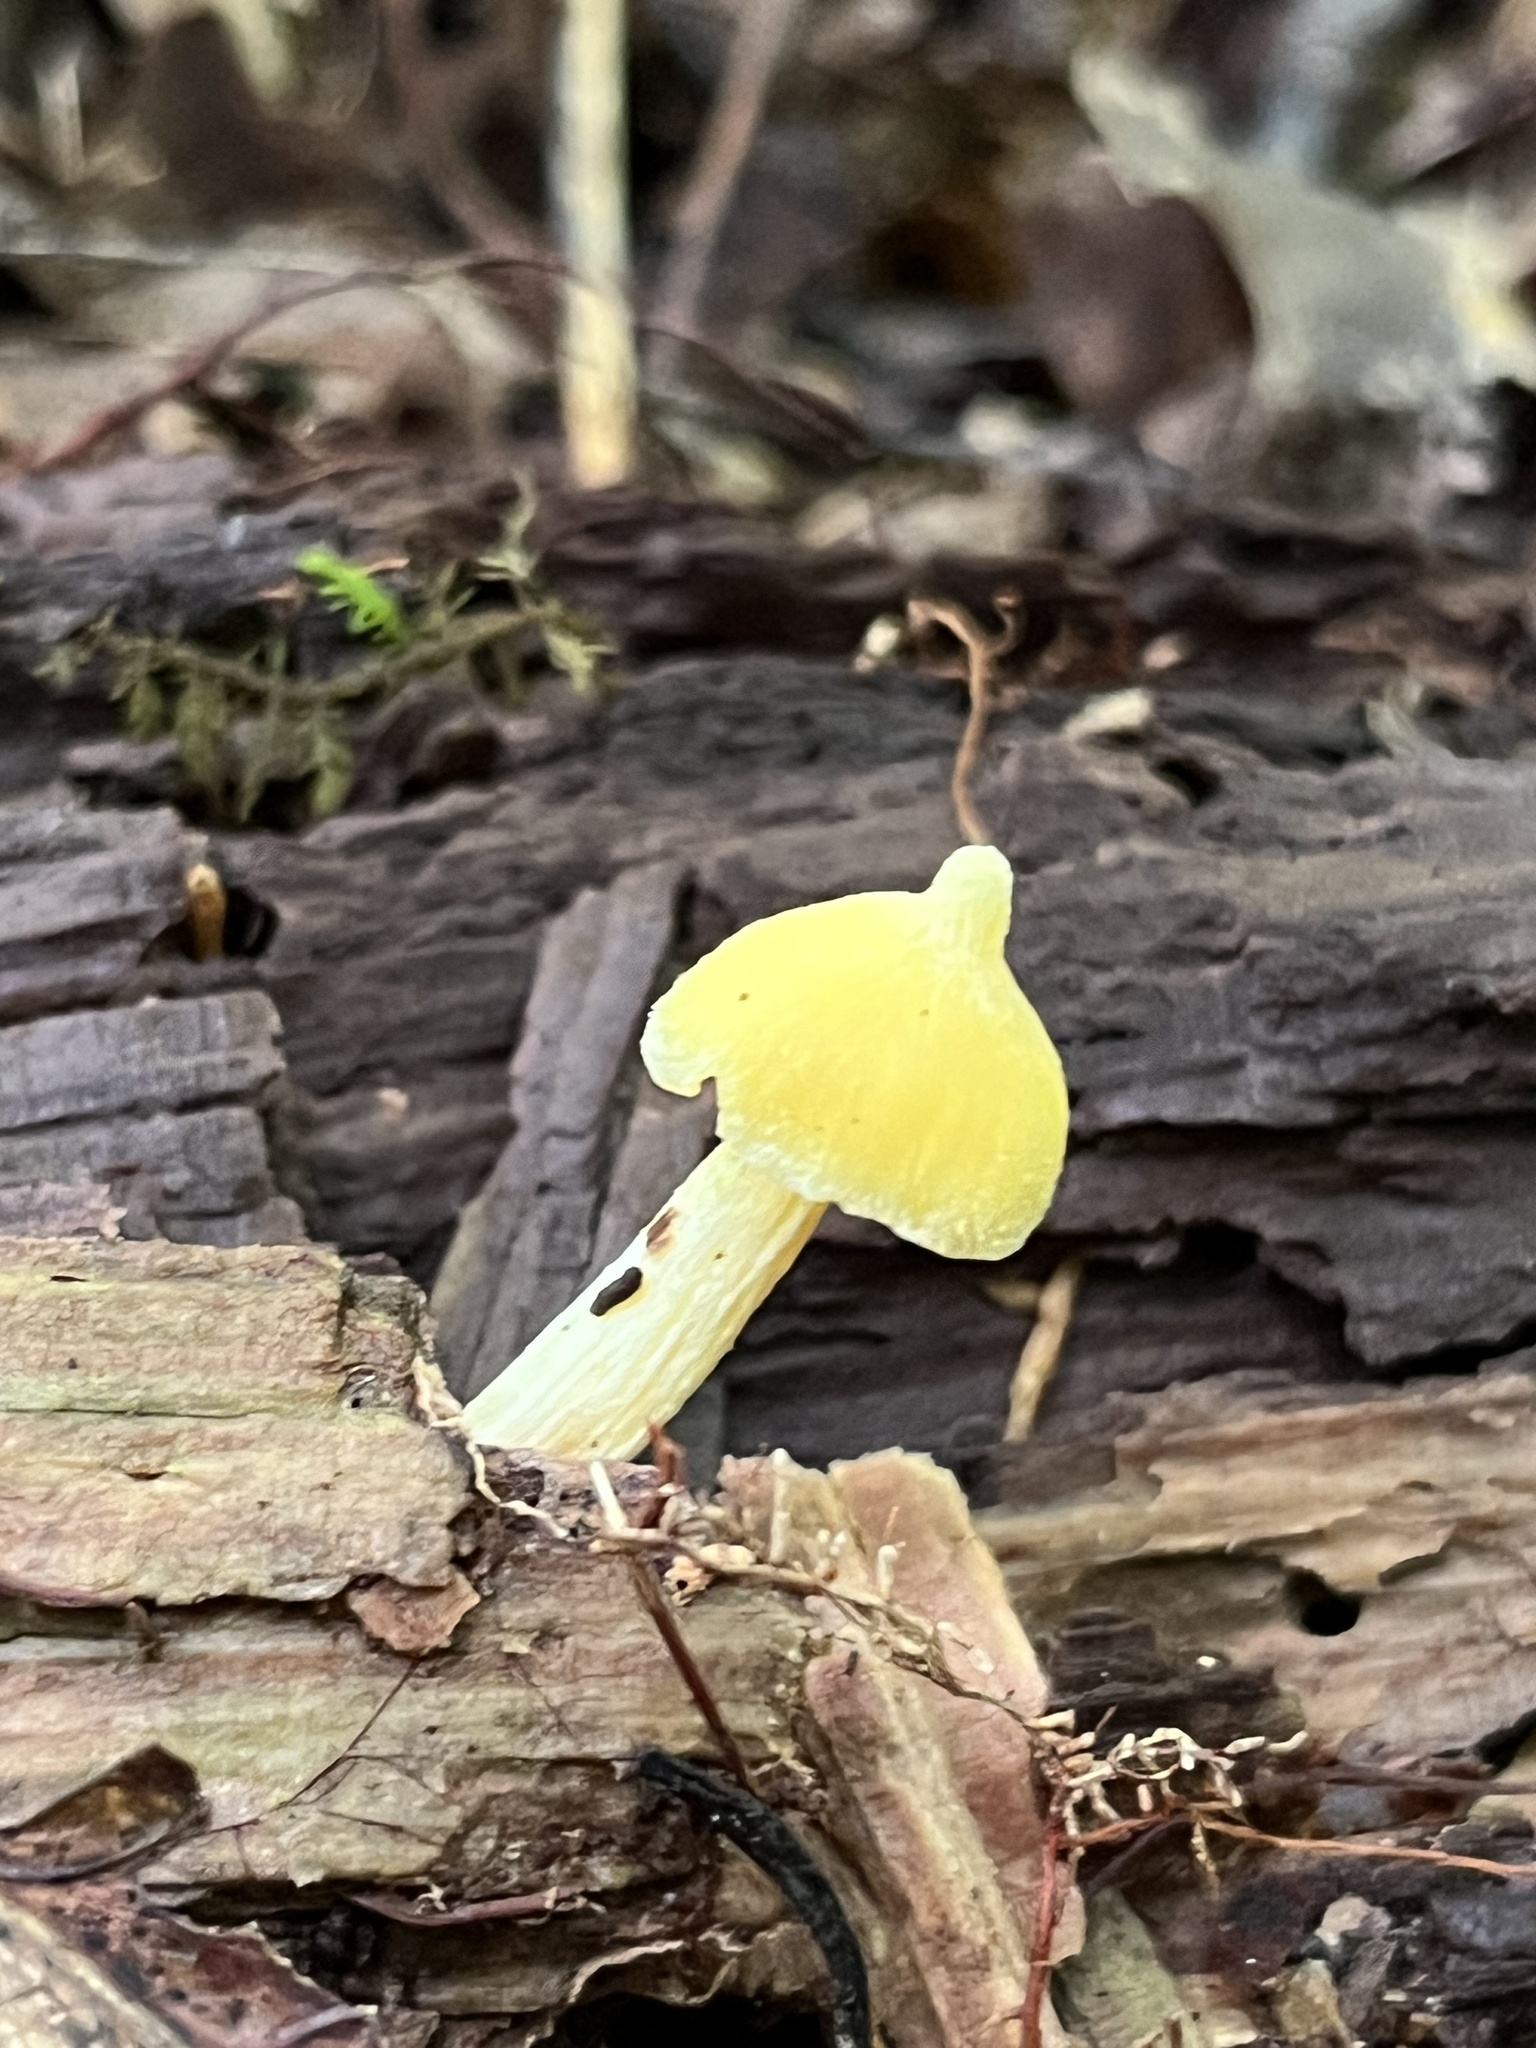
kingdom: Fungi
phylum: Basidiomycota
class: Agaricomycetes
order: Agaricales
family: Entolomataceae
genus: Entoloma
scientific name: Entoloma murrayi
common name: Yellow unicorn entoloma
